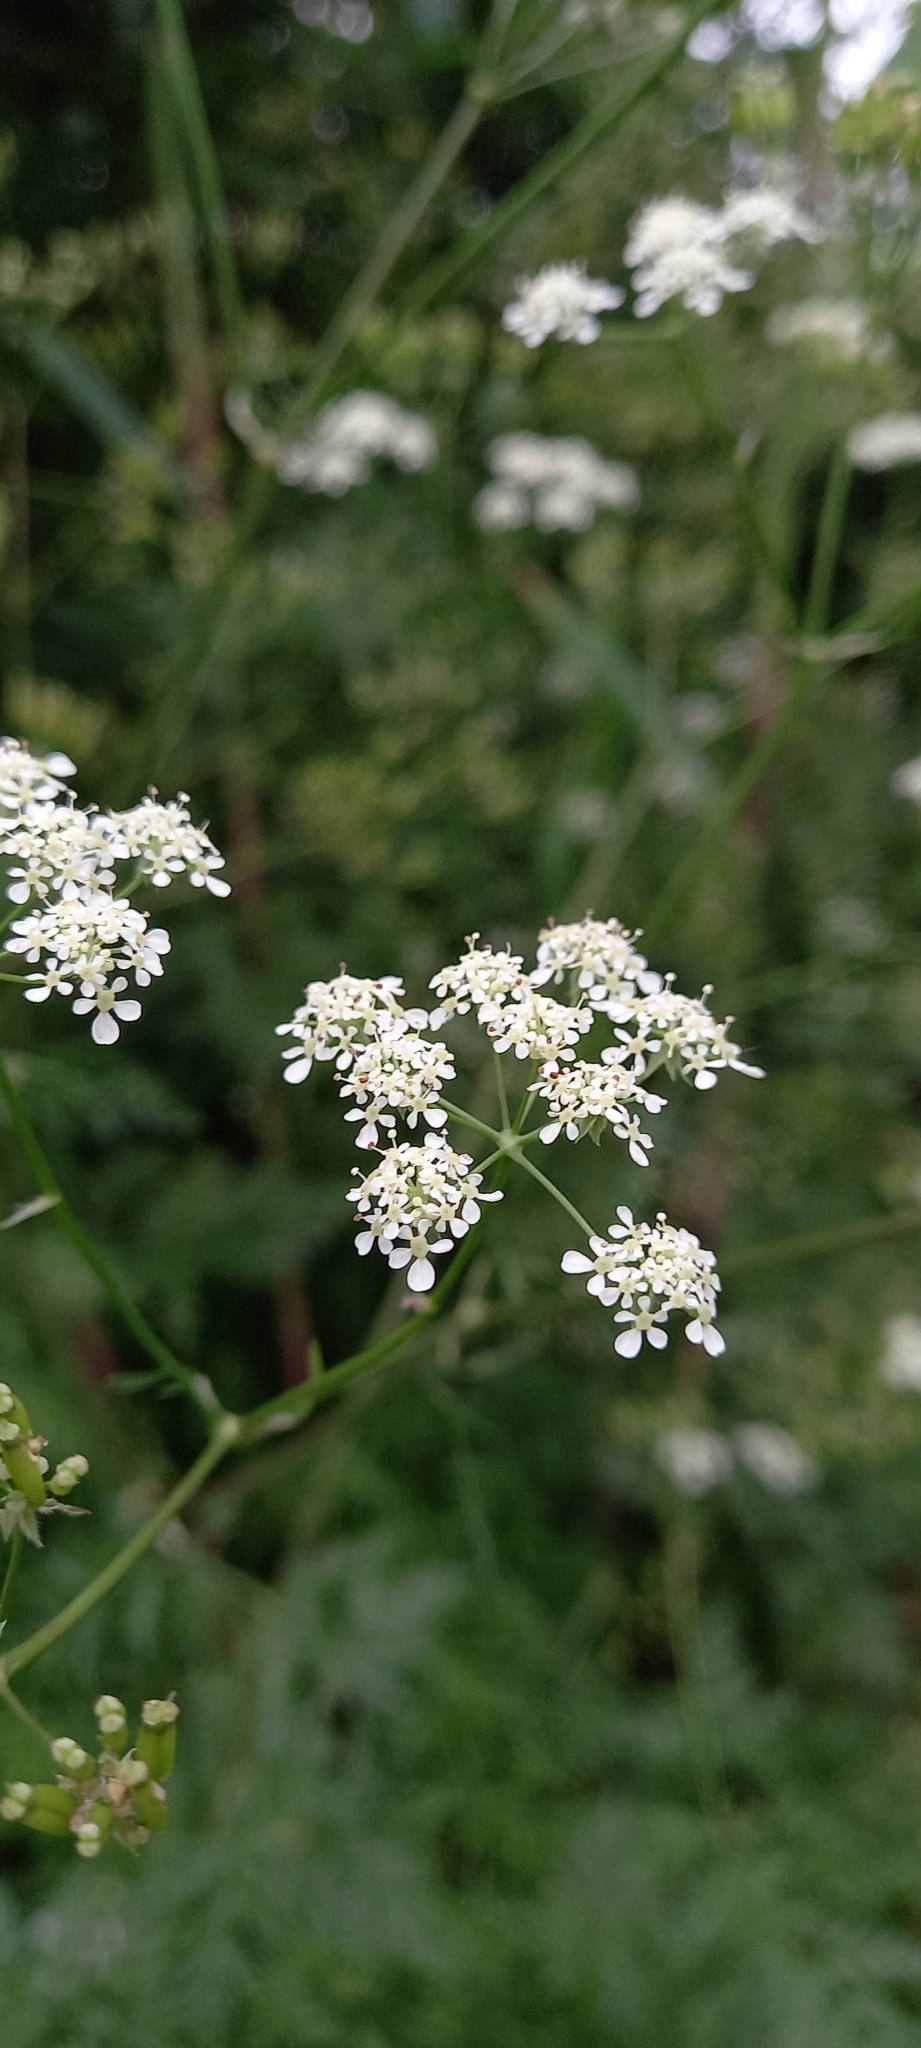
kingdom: Plantae
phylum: Tracheophyta
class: Magnoliopsida
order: Apiales
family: Apiaceae
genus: Anthriscus
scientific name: Anthriscus sylvestris
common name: Cow parsley
